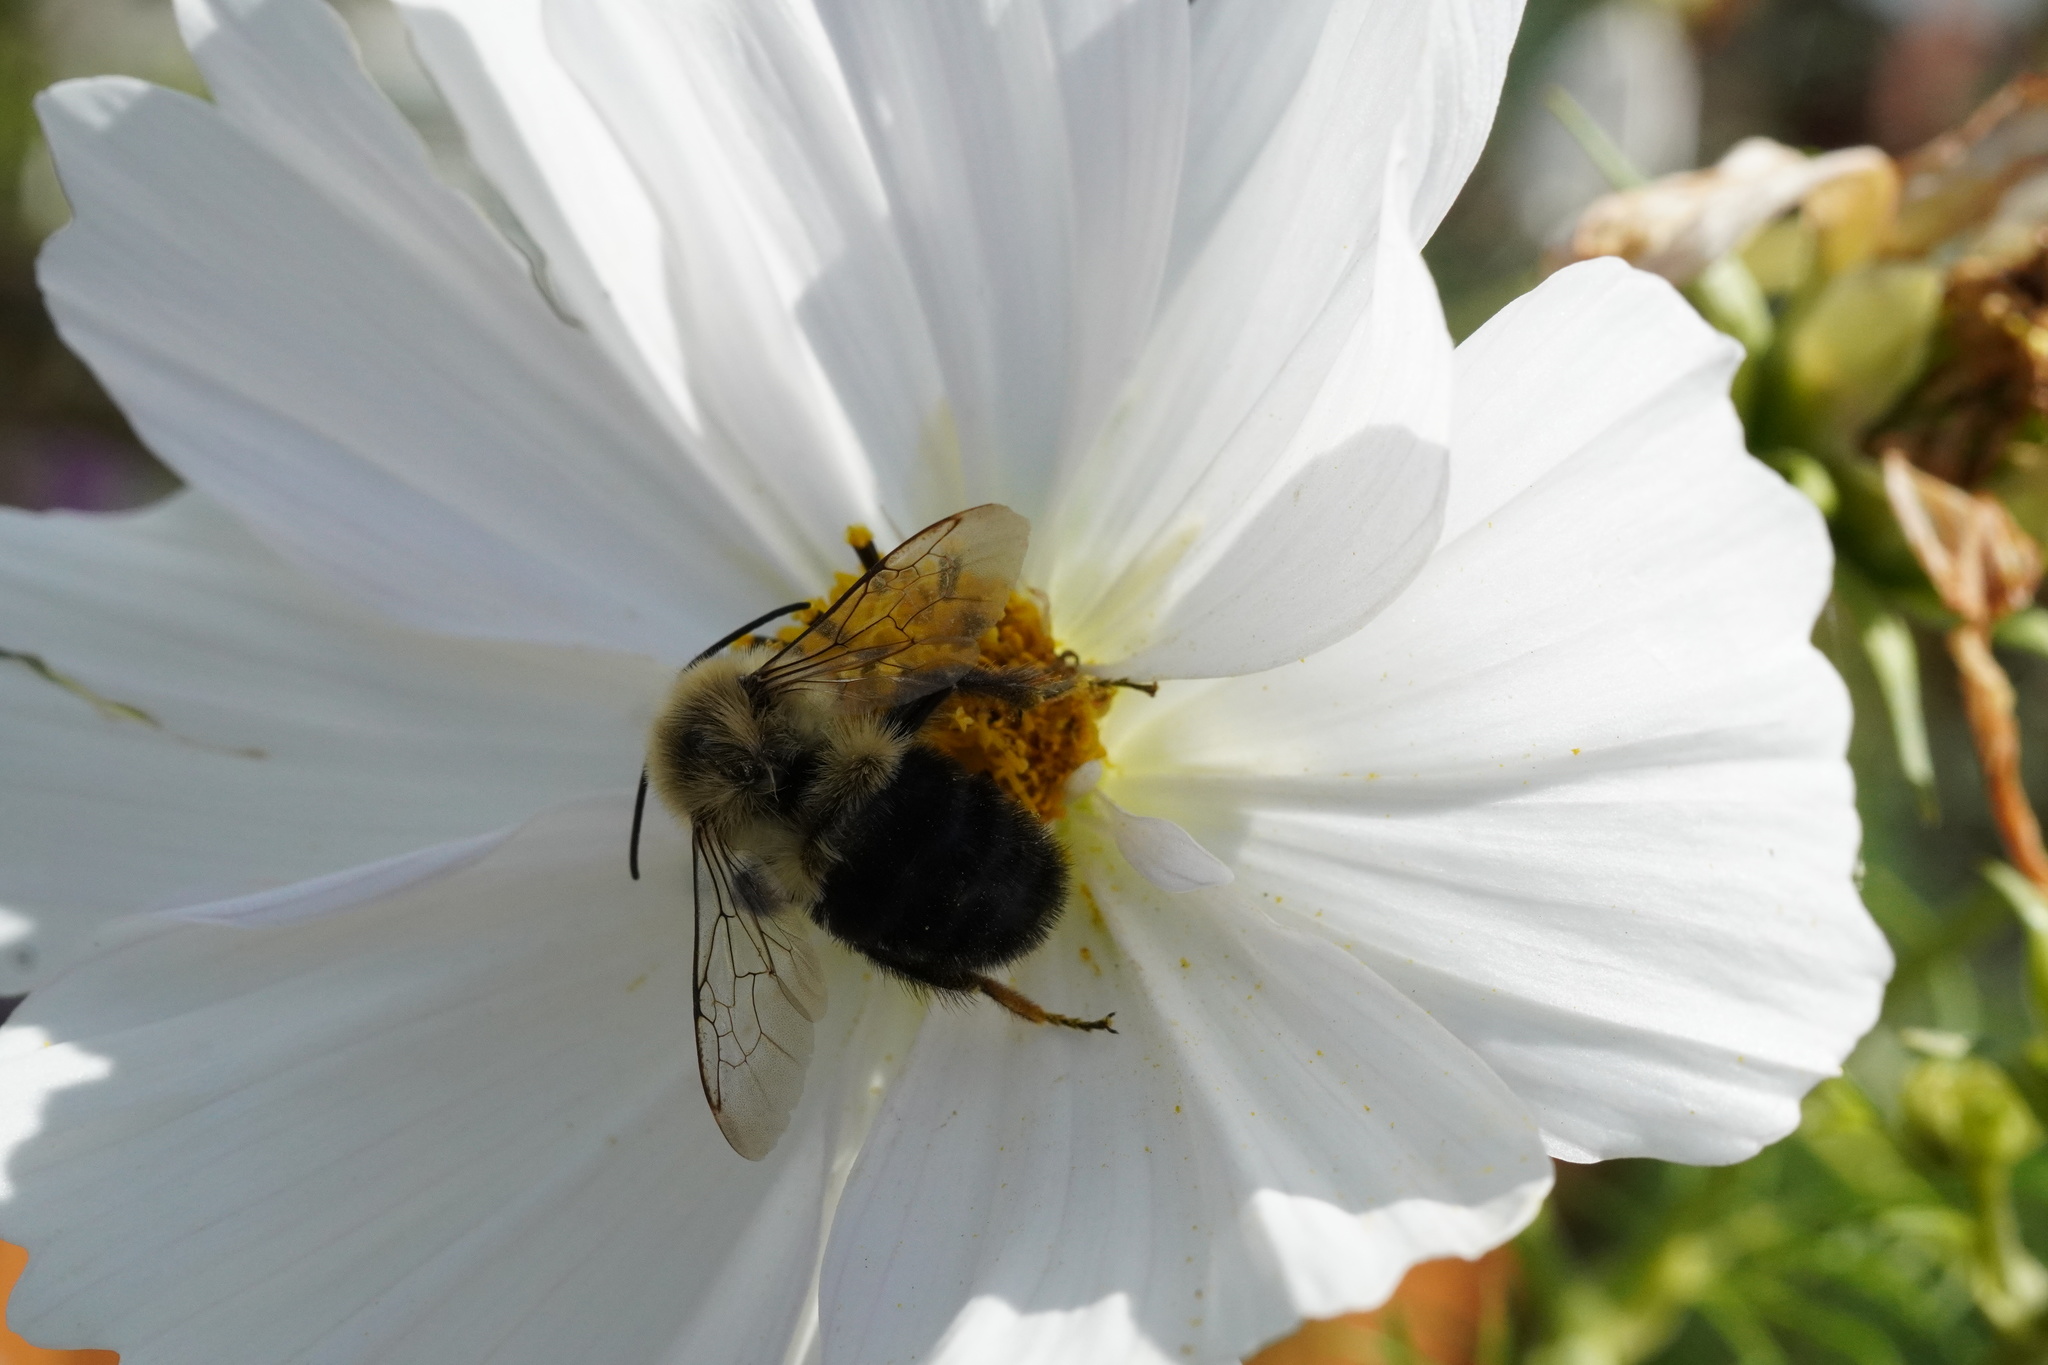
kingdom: Animalia
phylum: Arthropoda
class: Insecta
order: Hymenoptera
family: Apidae
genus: Bombus
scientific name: Bombus impatiens
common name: Common eastern bumble bee
